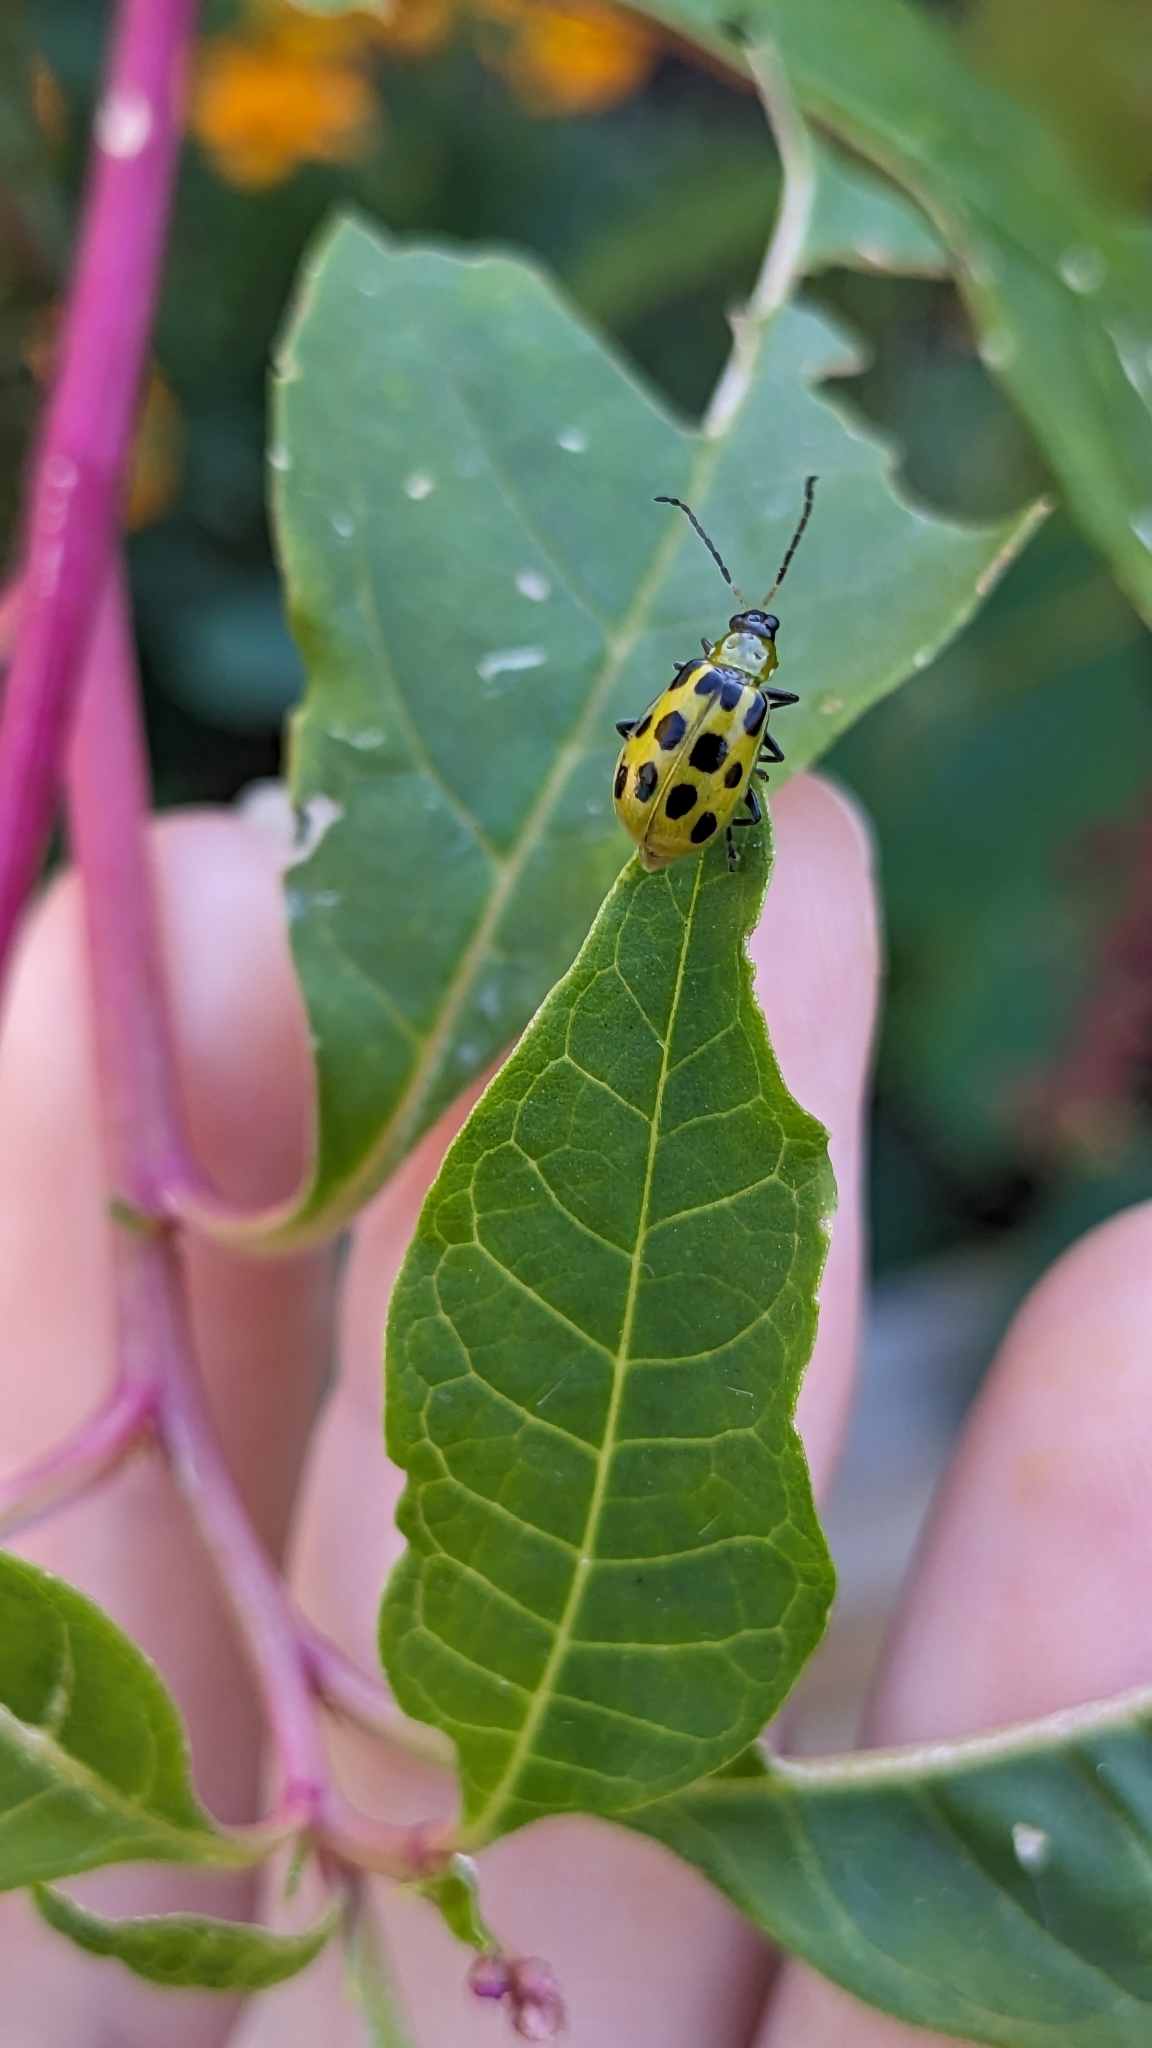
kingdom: Animalia
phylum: Arthropoda
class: Insecta
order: Coleoptera
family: Chrysomelidae
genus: Diabrotica
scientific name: Diabrotica undecimpunctata
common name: Spotted cucumber beetle
